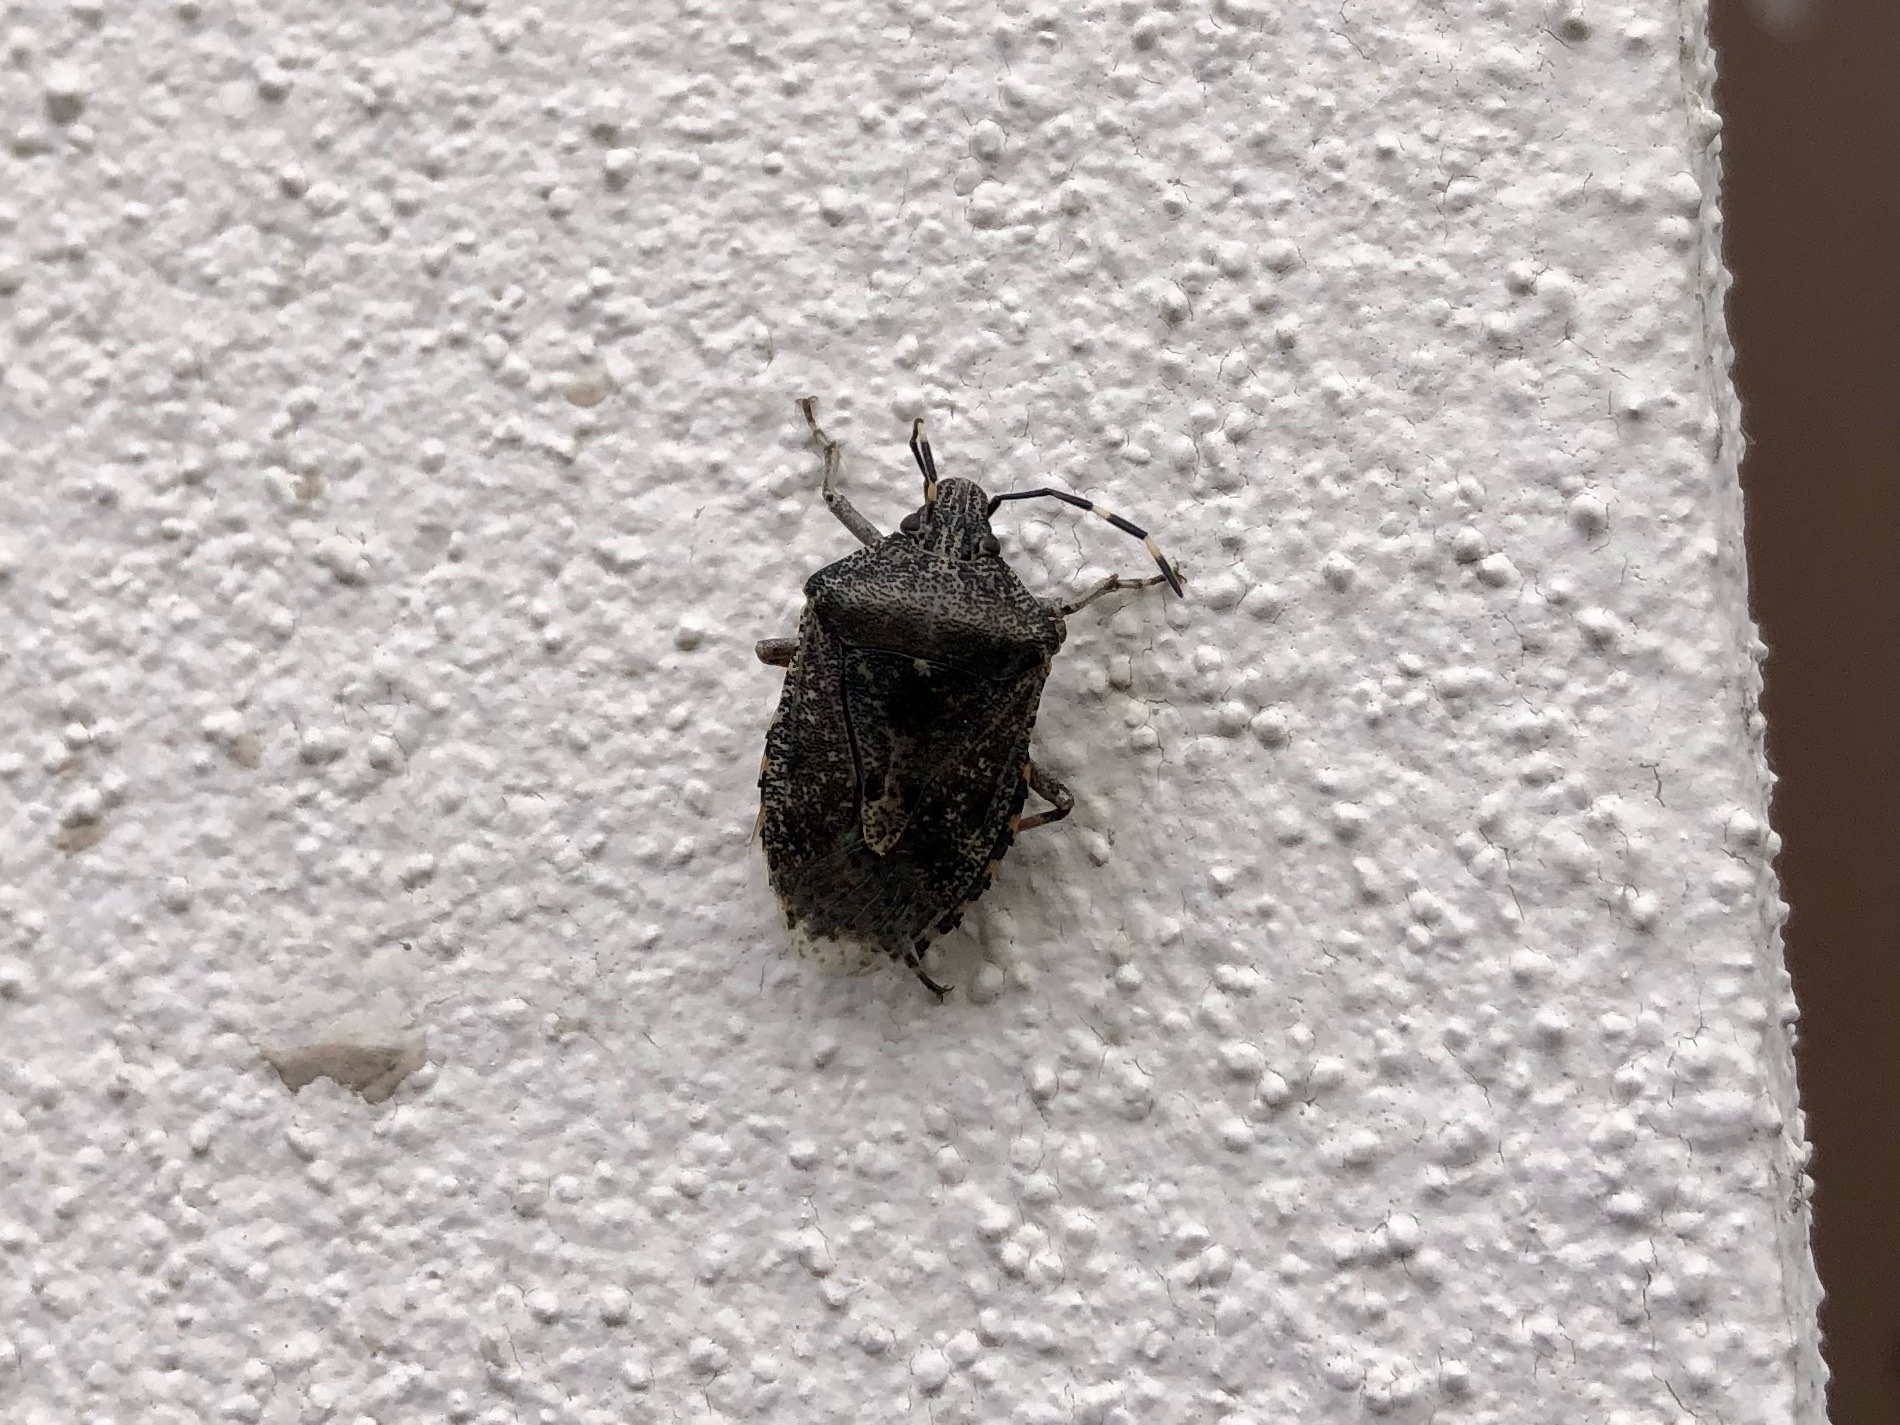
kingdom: Animalia
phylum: Arthropoda
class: Insecta
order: Hemiptera
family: Pentatomidae
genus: Rhaphigaster
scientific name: Rhaphigaster nebulosa
